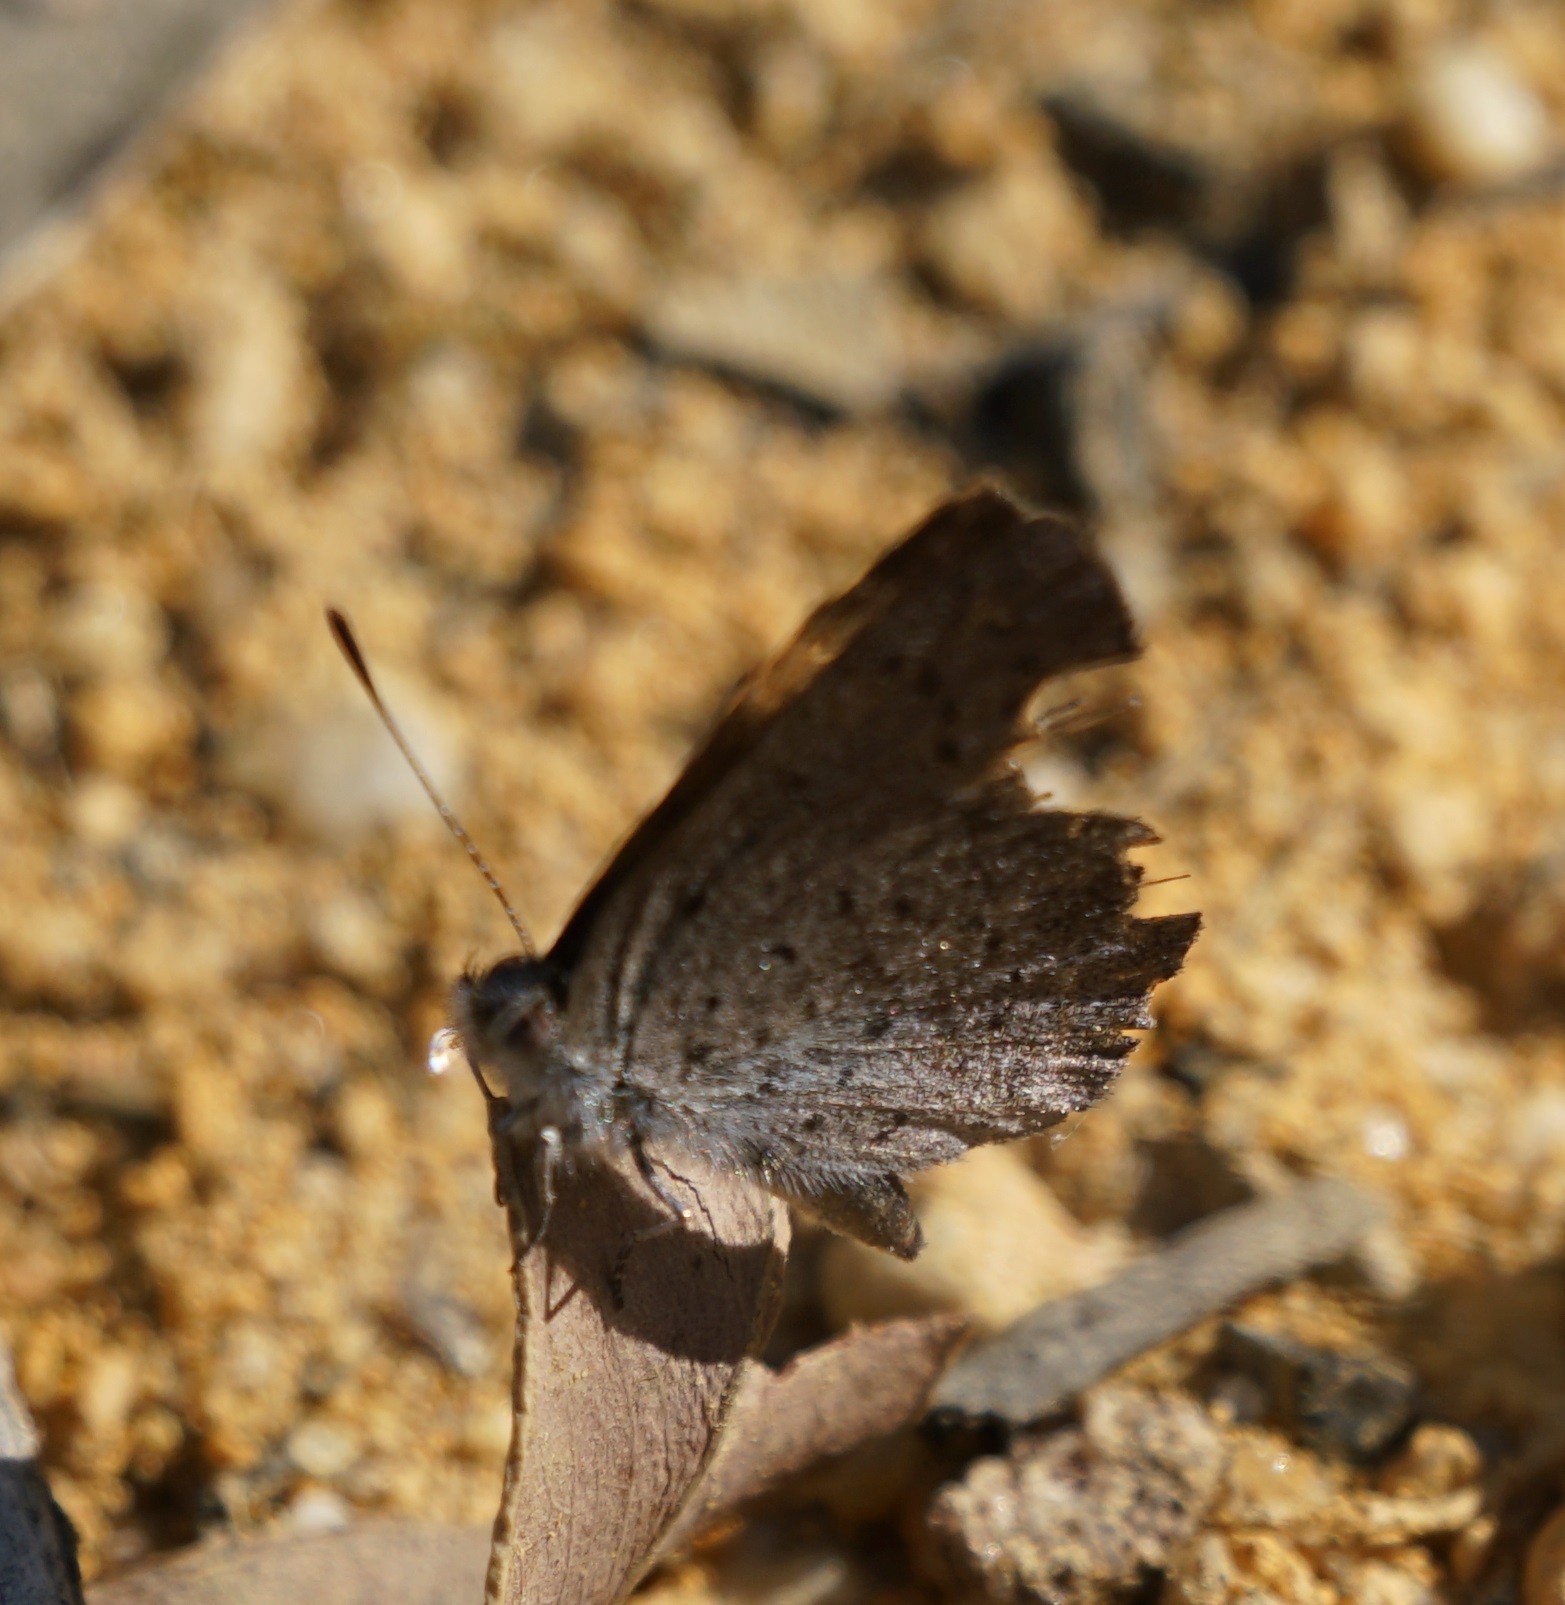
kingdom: Animalia
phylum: Arthropoda
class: Insecta
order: Lepidoptera
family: Lycaenidae
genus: Candalides
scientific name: Candalides
